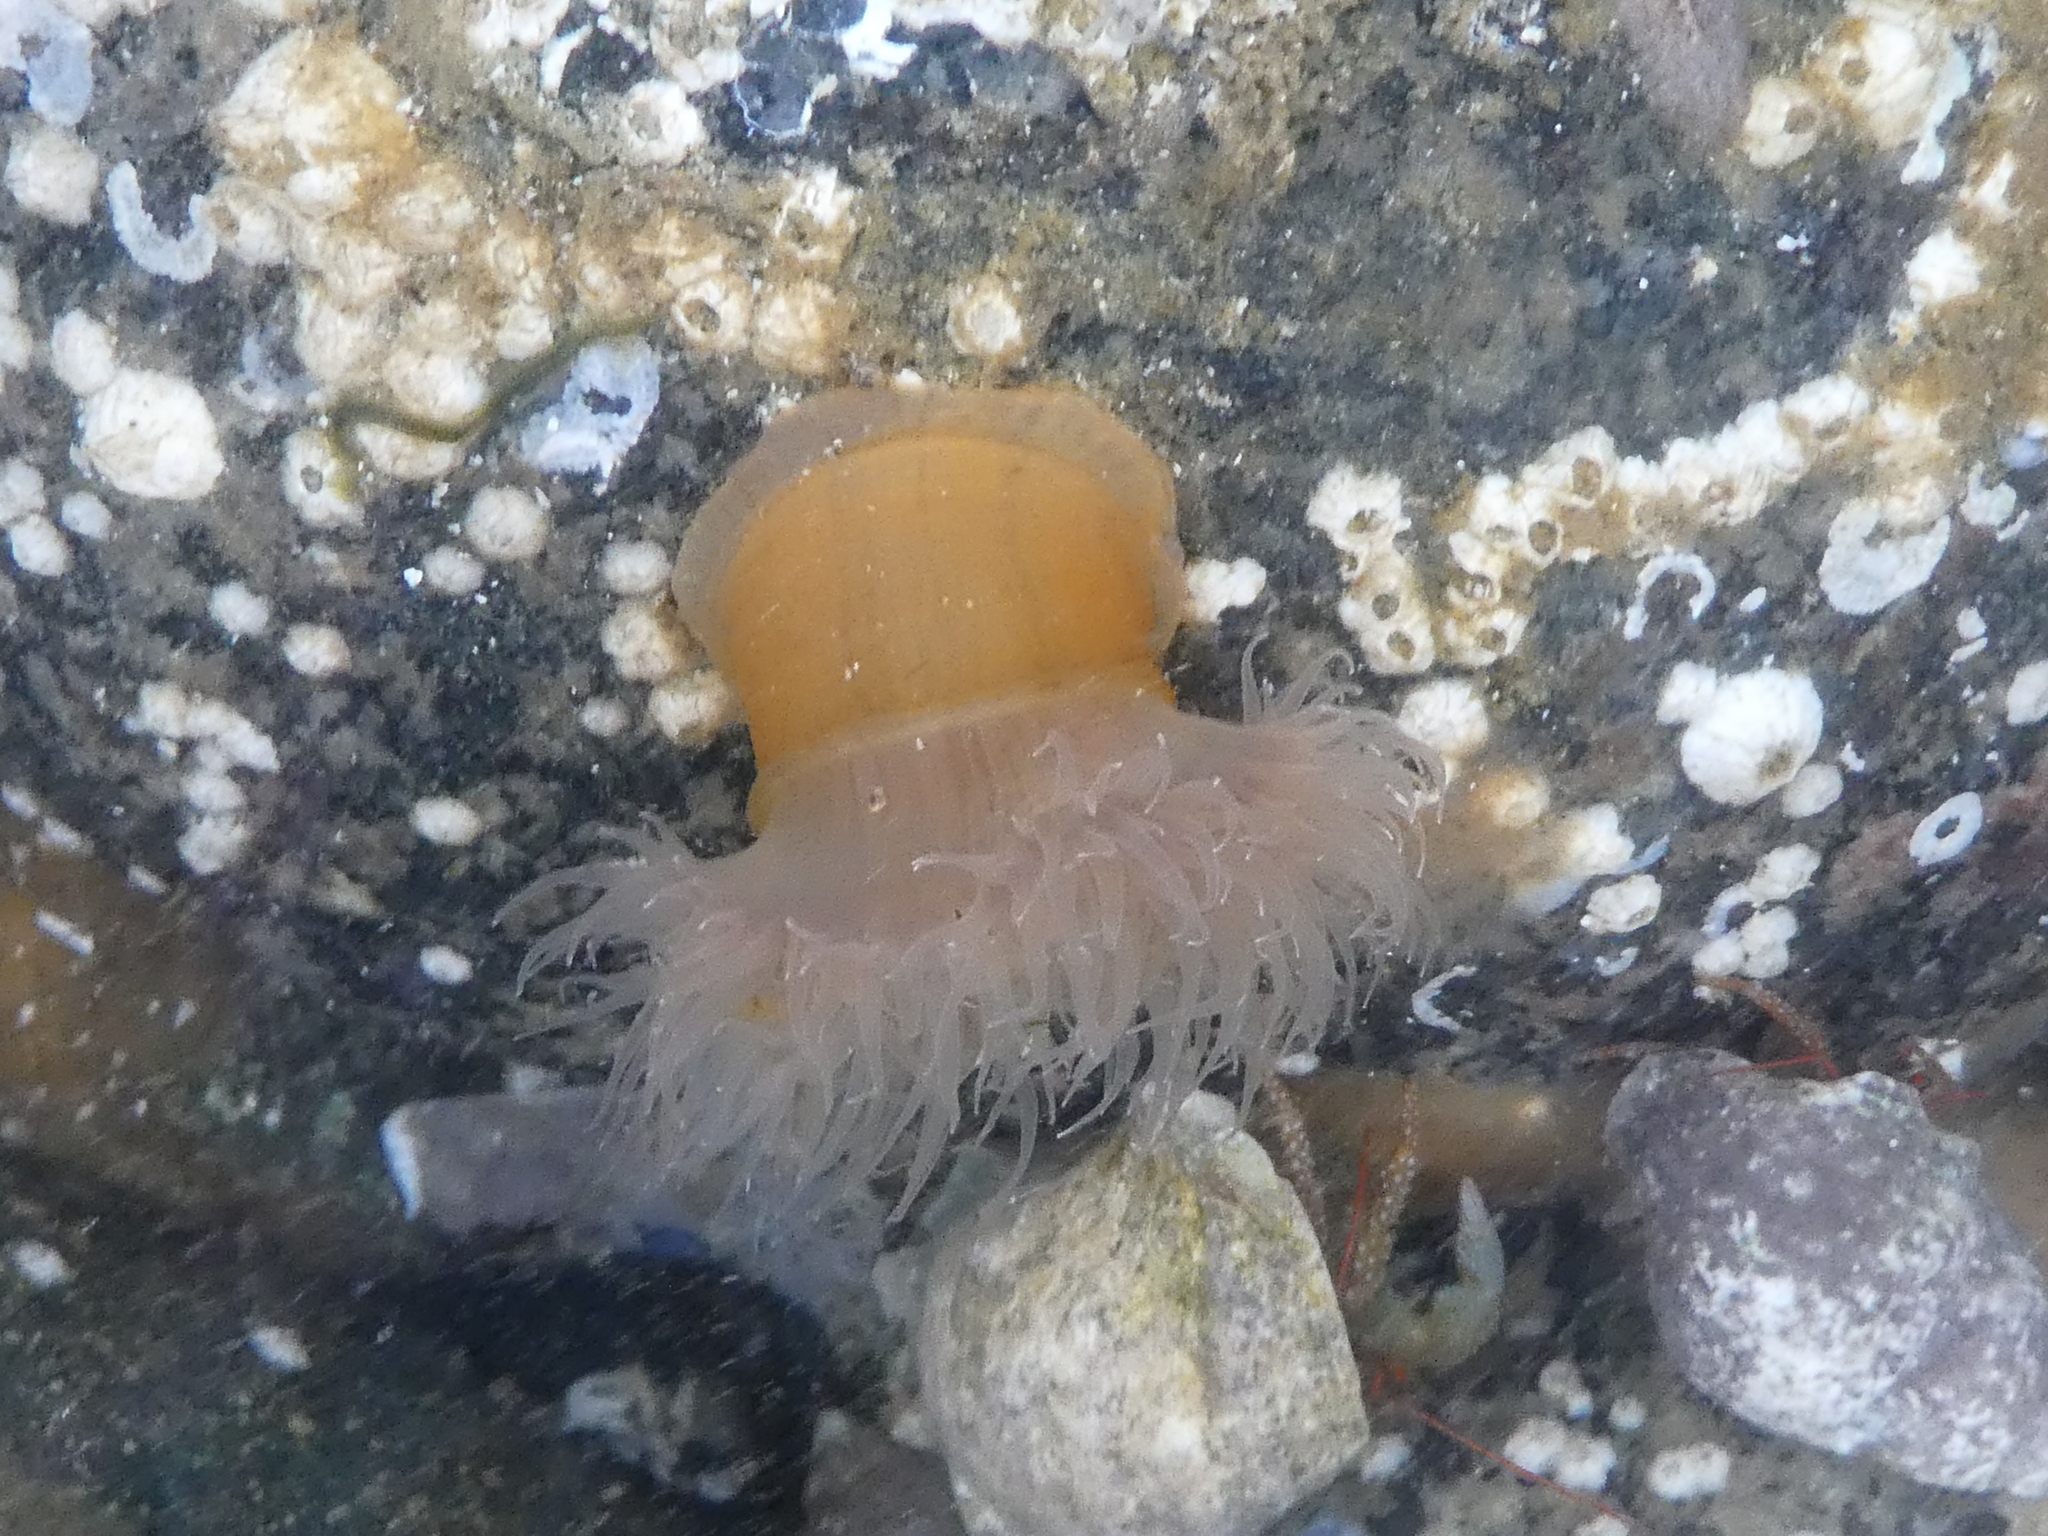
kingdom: Animalia
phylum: Cnidaria
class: Anthozoa
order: Actiniaria
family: Metridiidae
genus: Metridium
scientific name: Metridium senile
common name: Clonal plumose anemone
